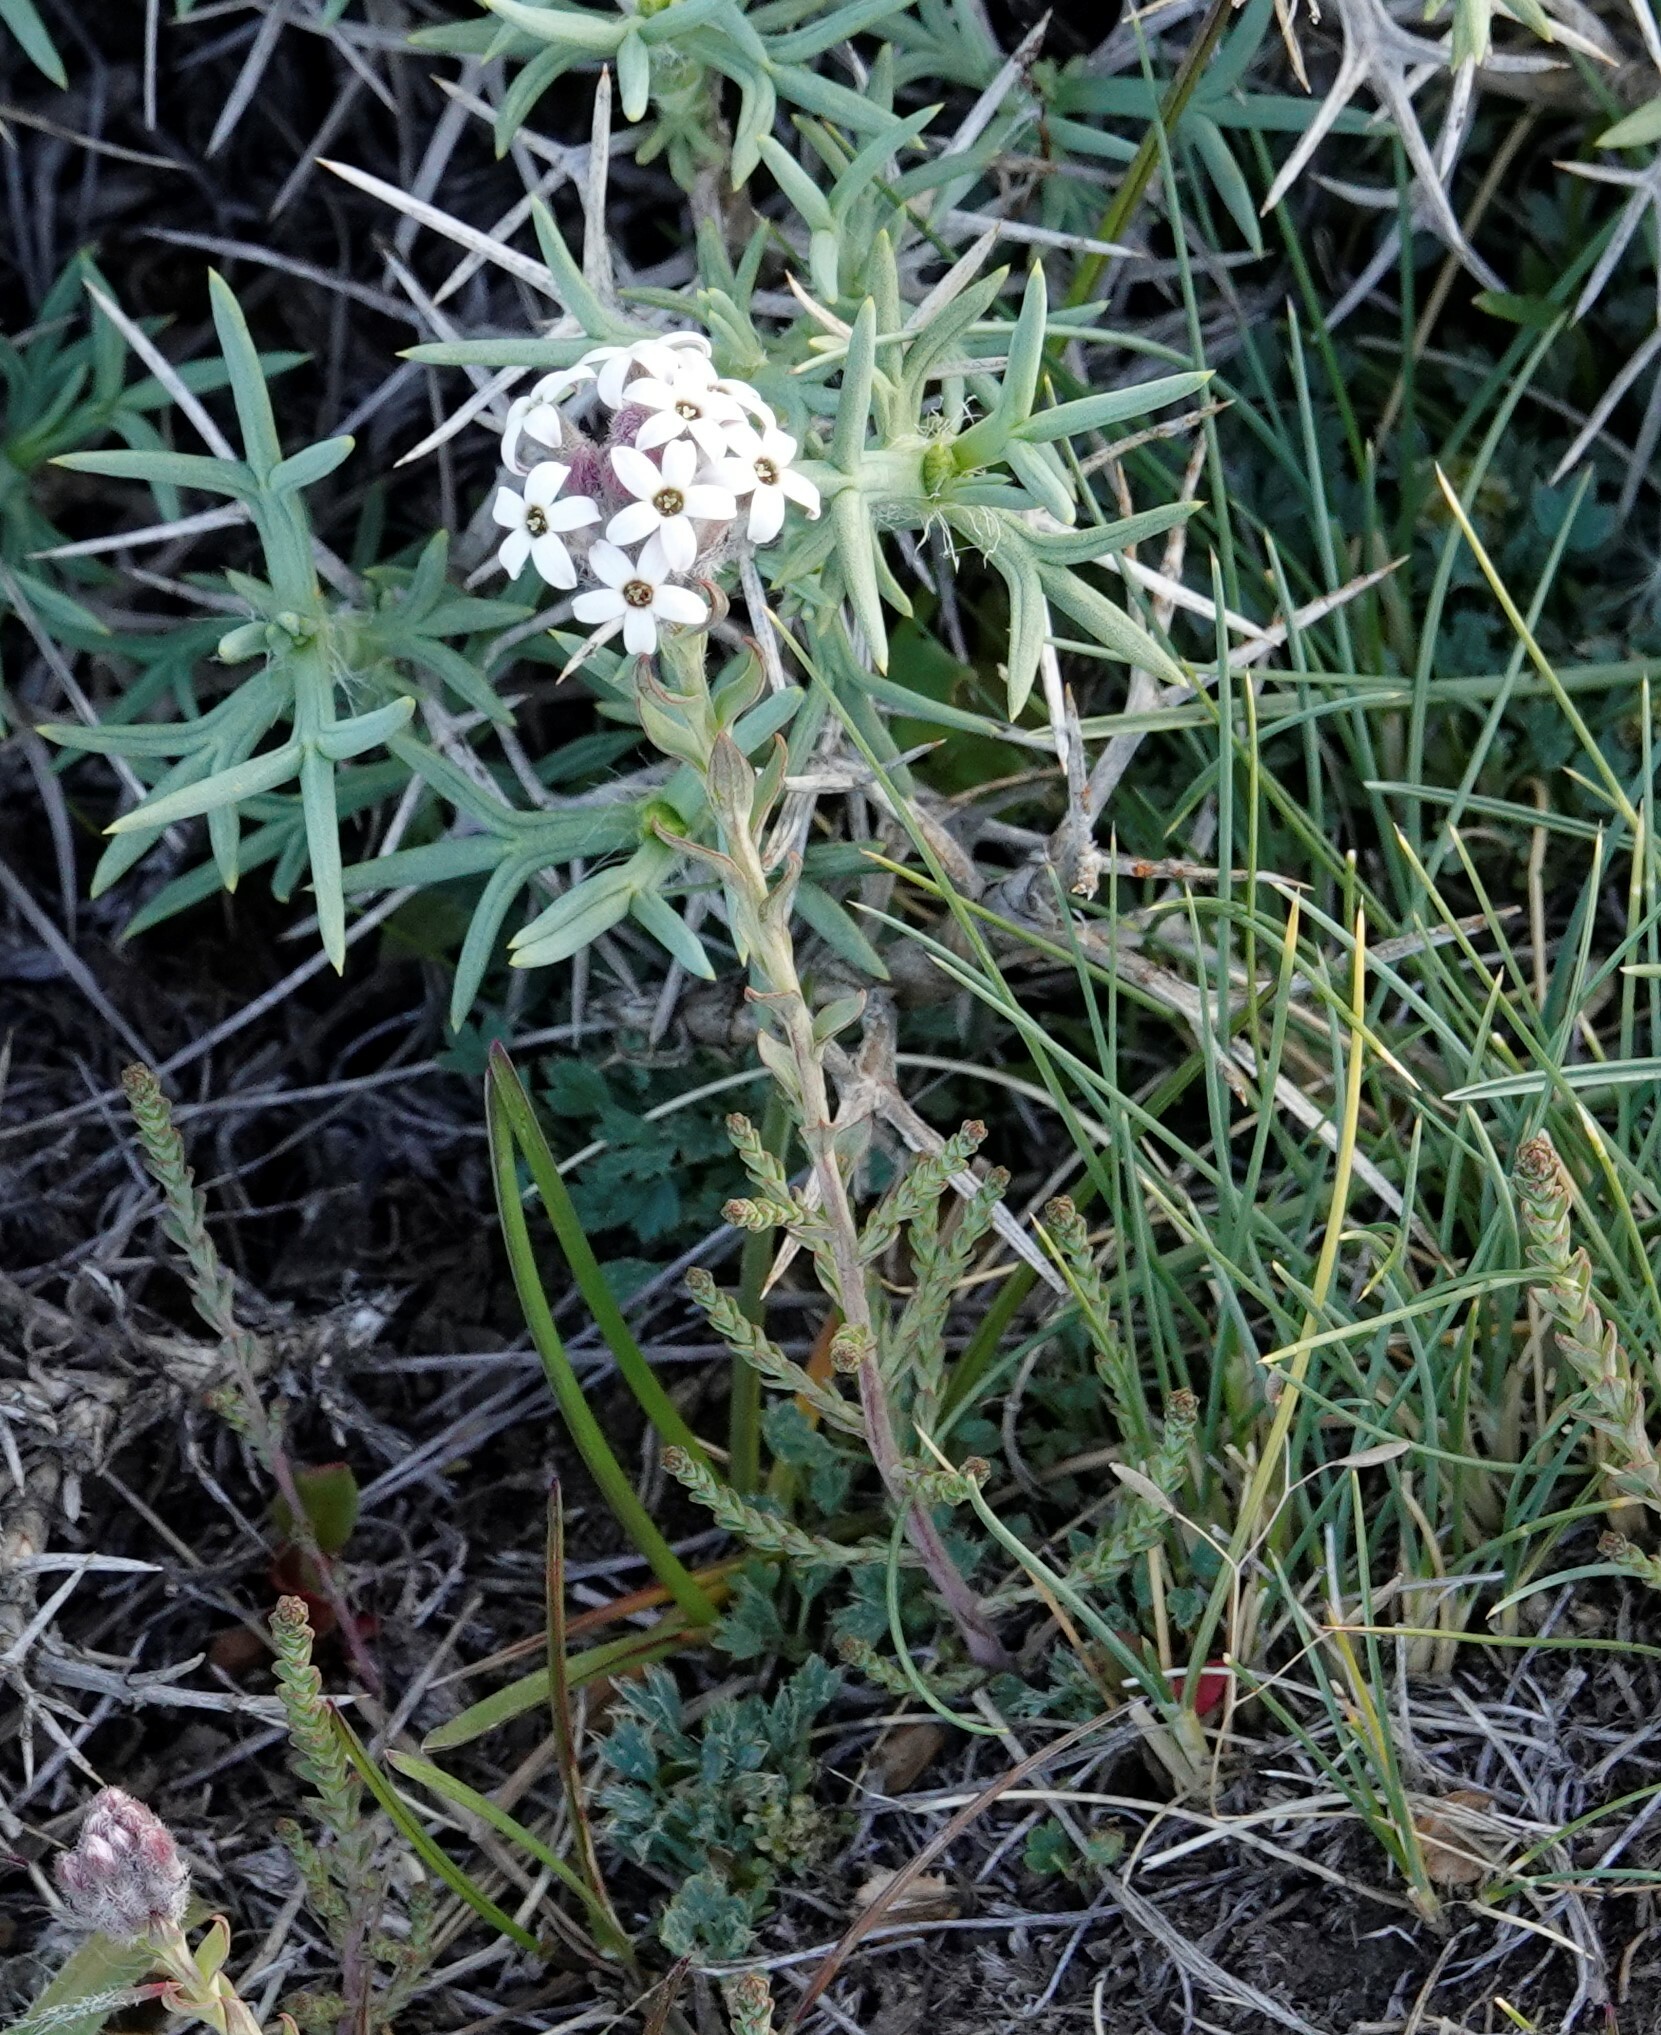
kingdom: Plantae
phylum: Tracheophyta
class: Magnoliopsida
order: Santalales
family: Schoepfiaceae
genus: Arjona
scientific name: Arjona patagonica
